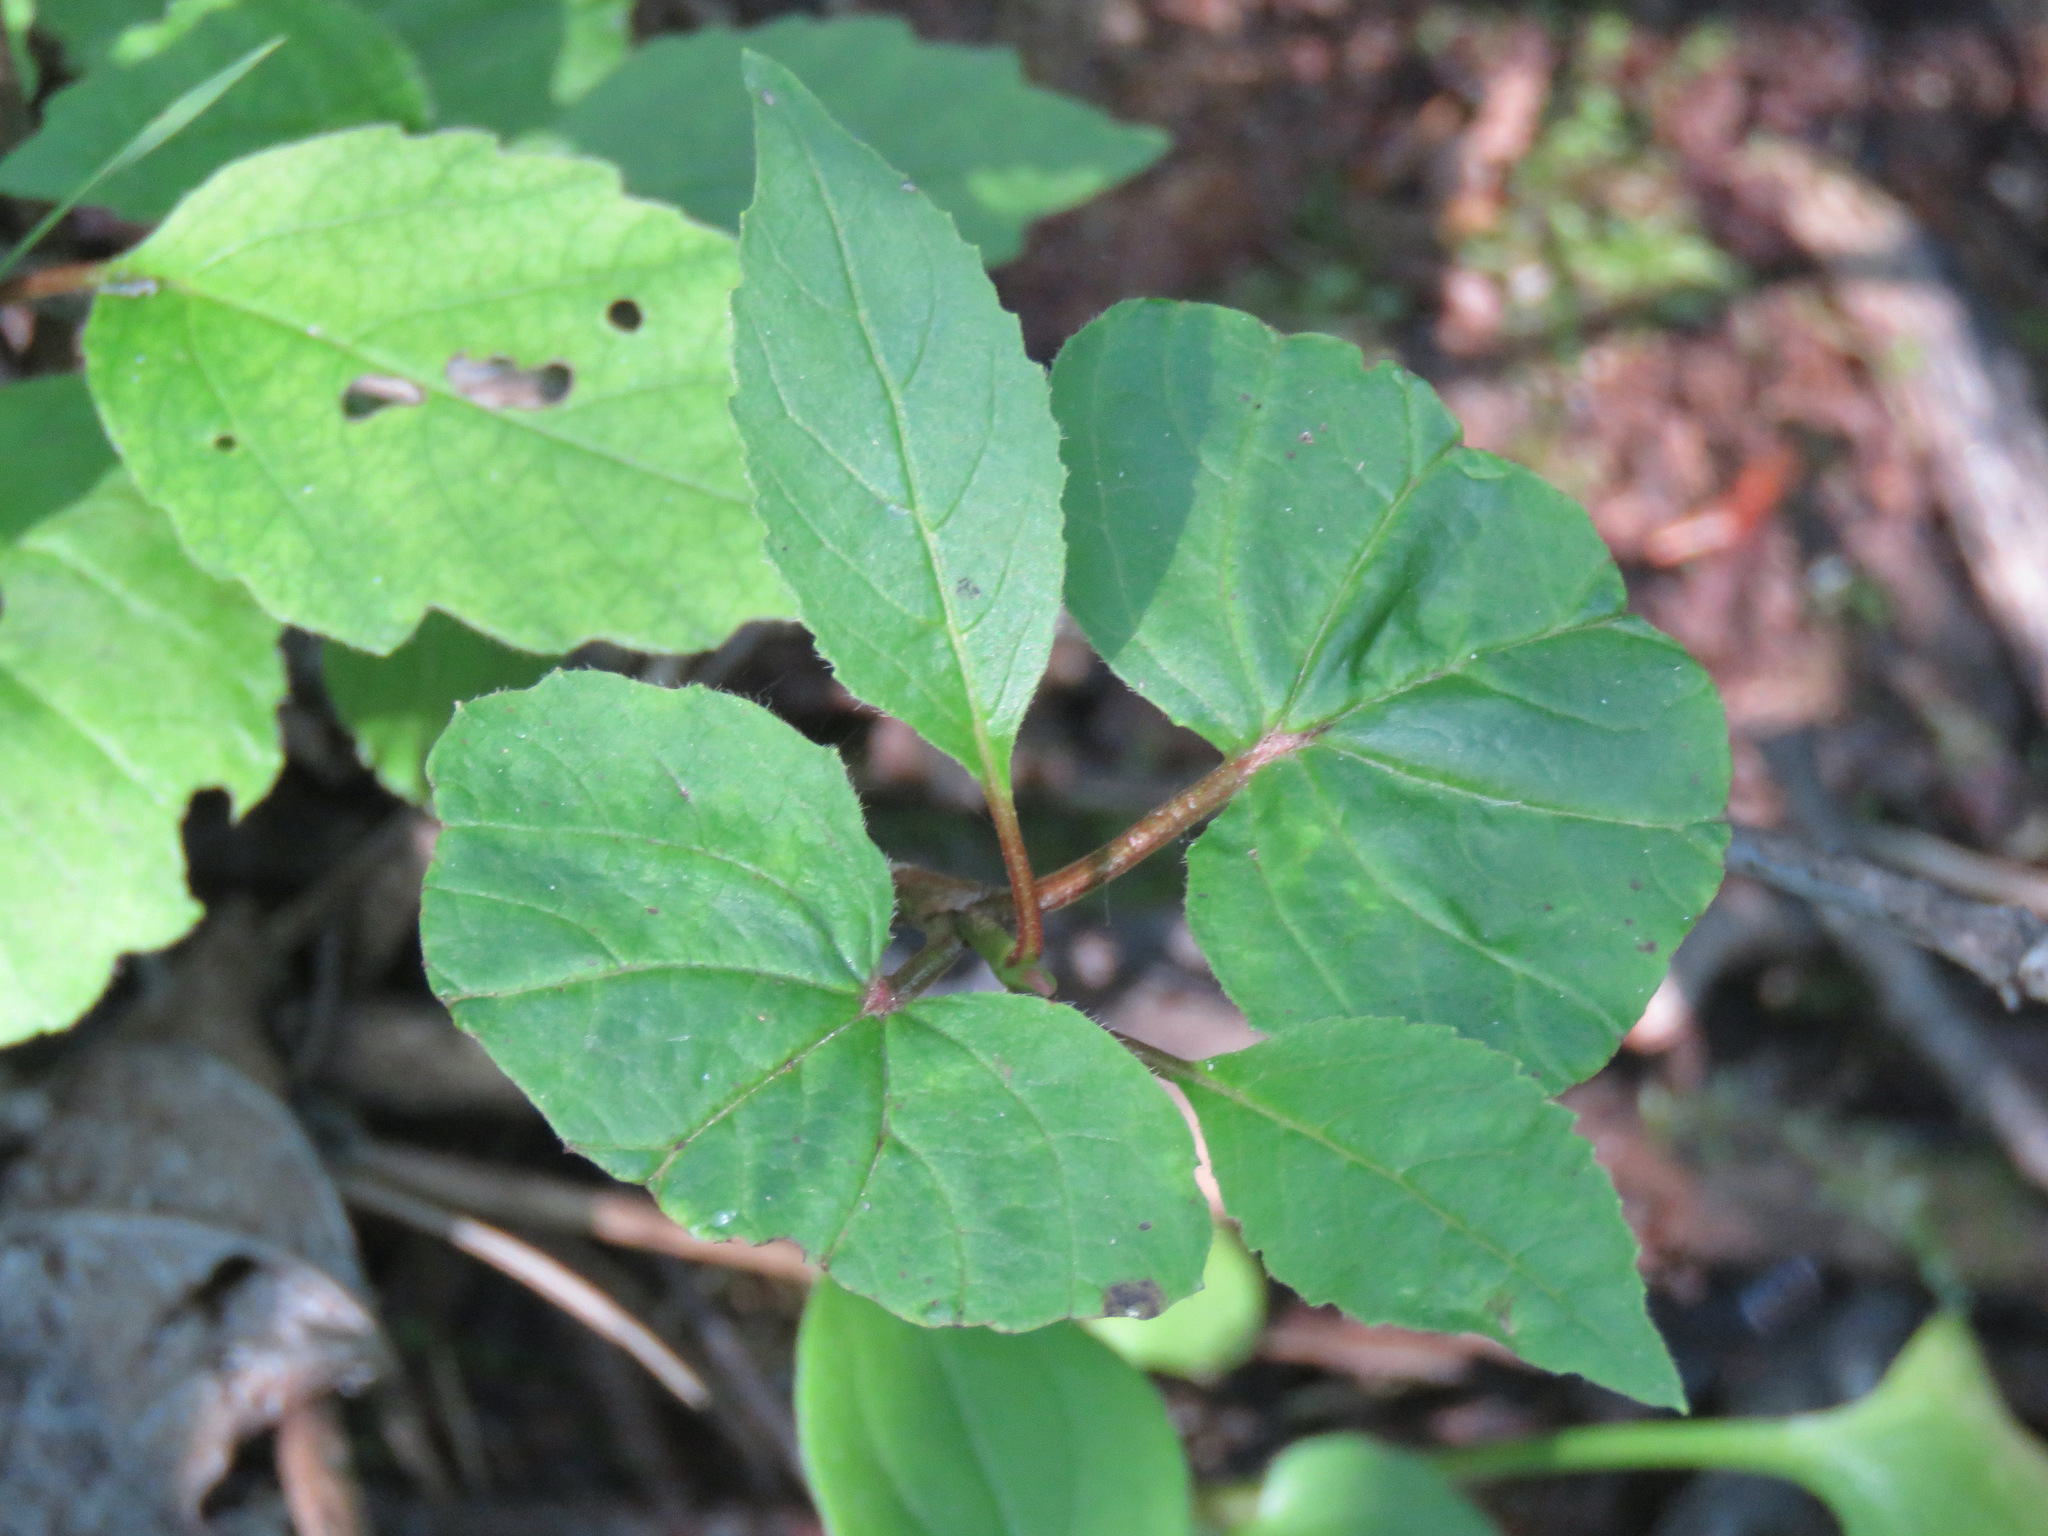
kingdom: Plantae
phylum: Tracheophyta
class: Magnoliopsida
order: Dipsacales
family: Viburnaceae
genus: Viburnum
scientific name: Viburnum edule
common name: Mooseberry
